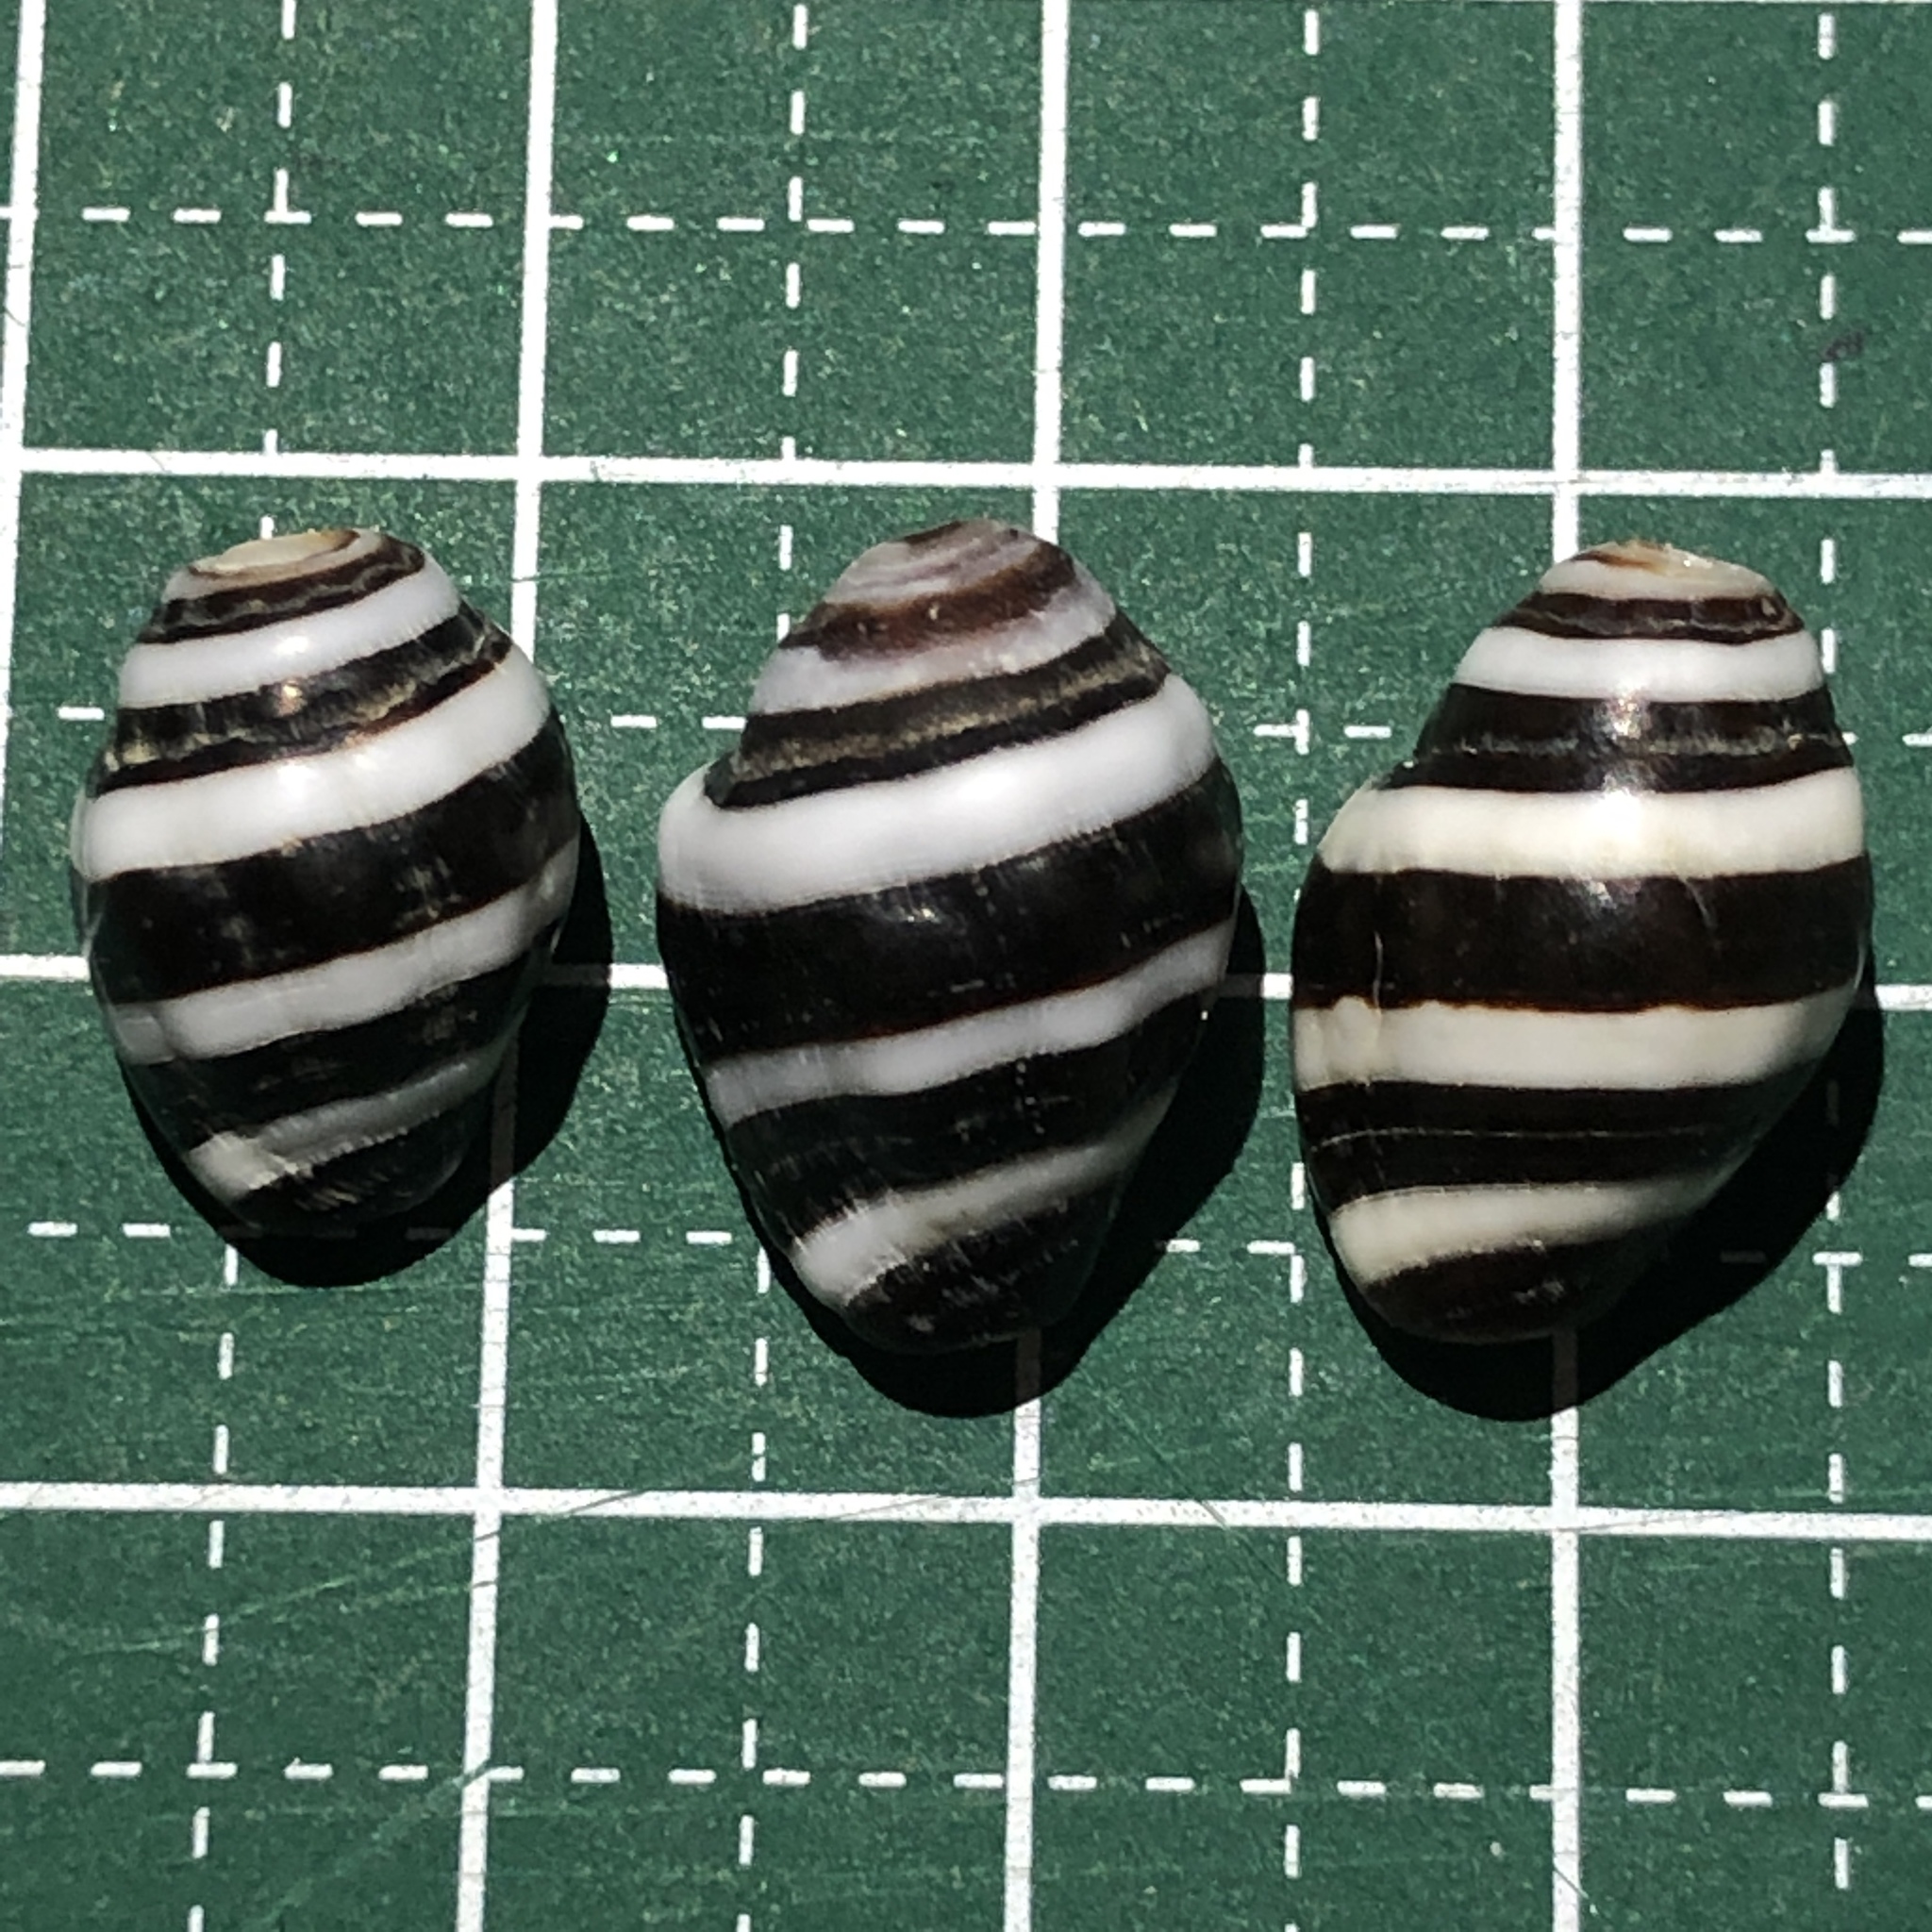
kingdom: Animalia
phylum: Mollusca
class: Gastropoda
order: Neogastropoda
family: Pisaniidae
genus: Engina
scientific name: Engina mendicaria
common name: Bumble bee snail
